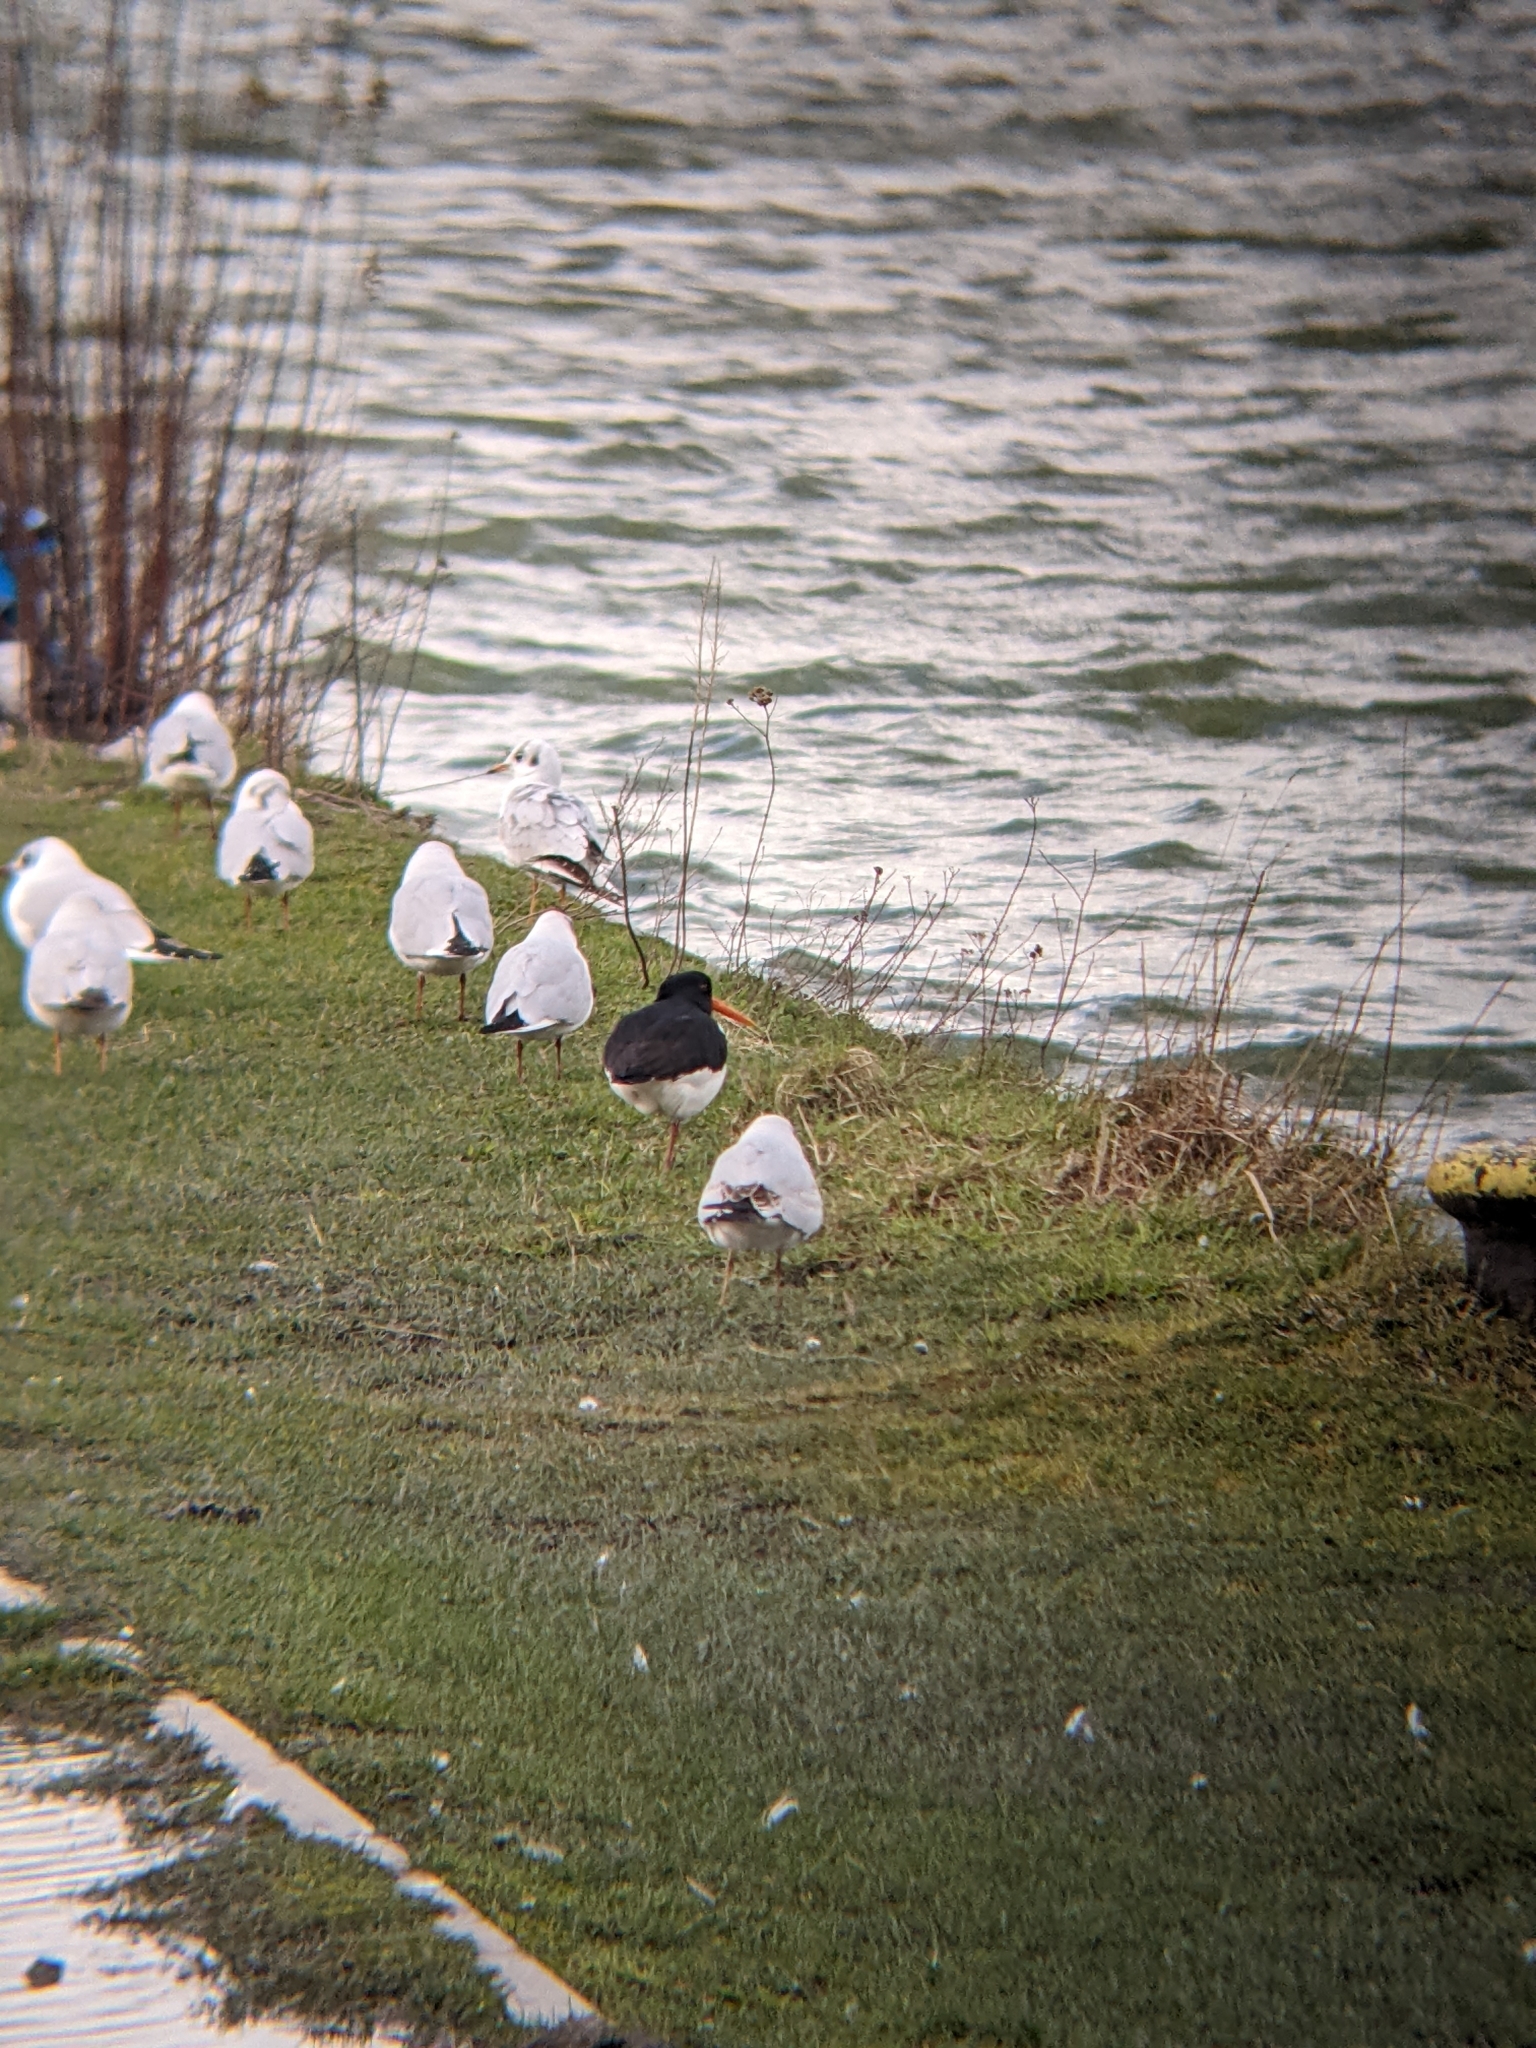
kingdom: Animalia
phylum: Chordata
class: Aves
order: Charadriiformes
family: Haematopodidae
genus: Haematopus
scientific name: Haematopus ostralegus
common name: Eurasian oystercatcher
